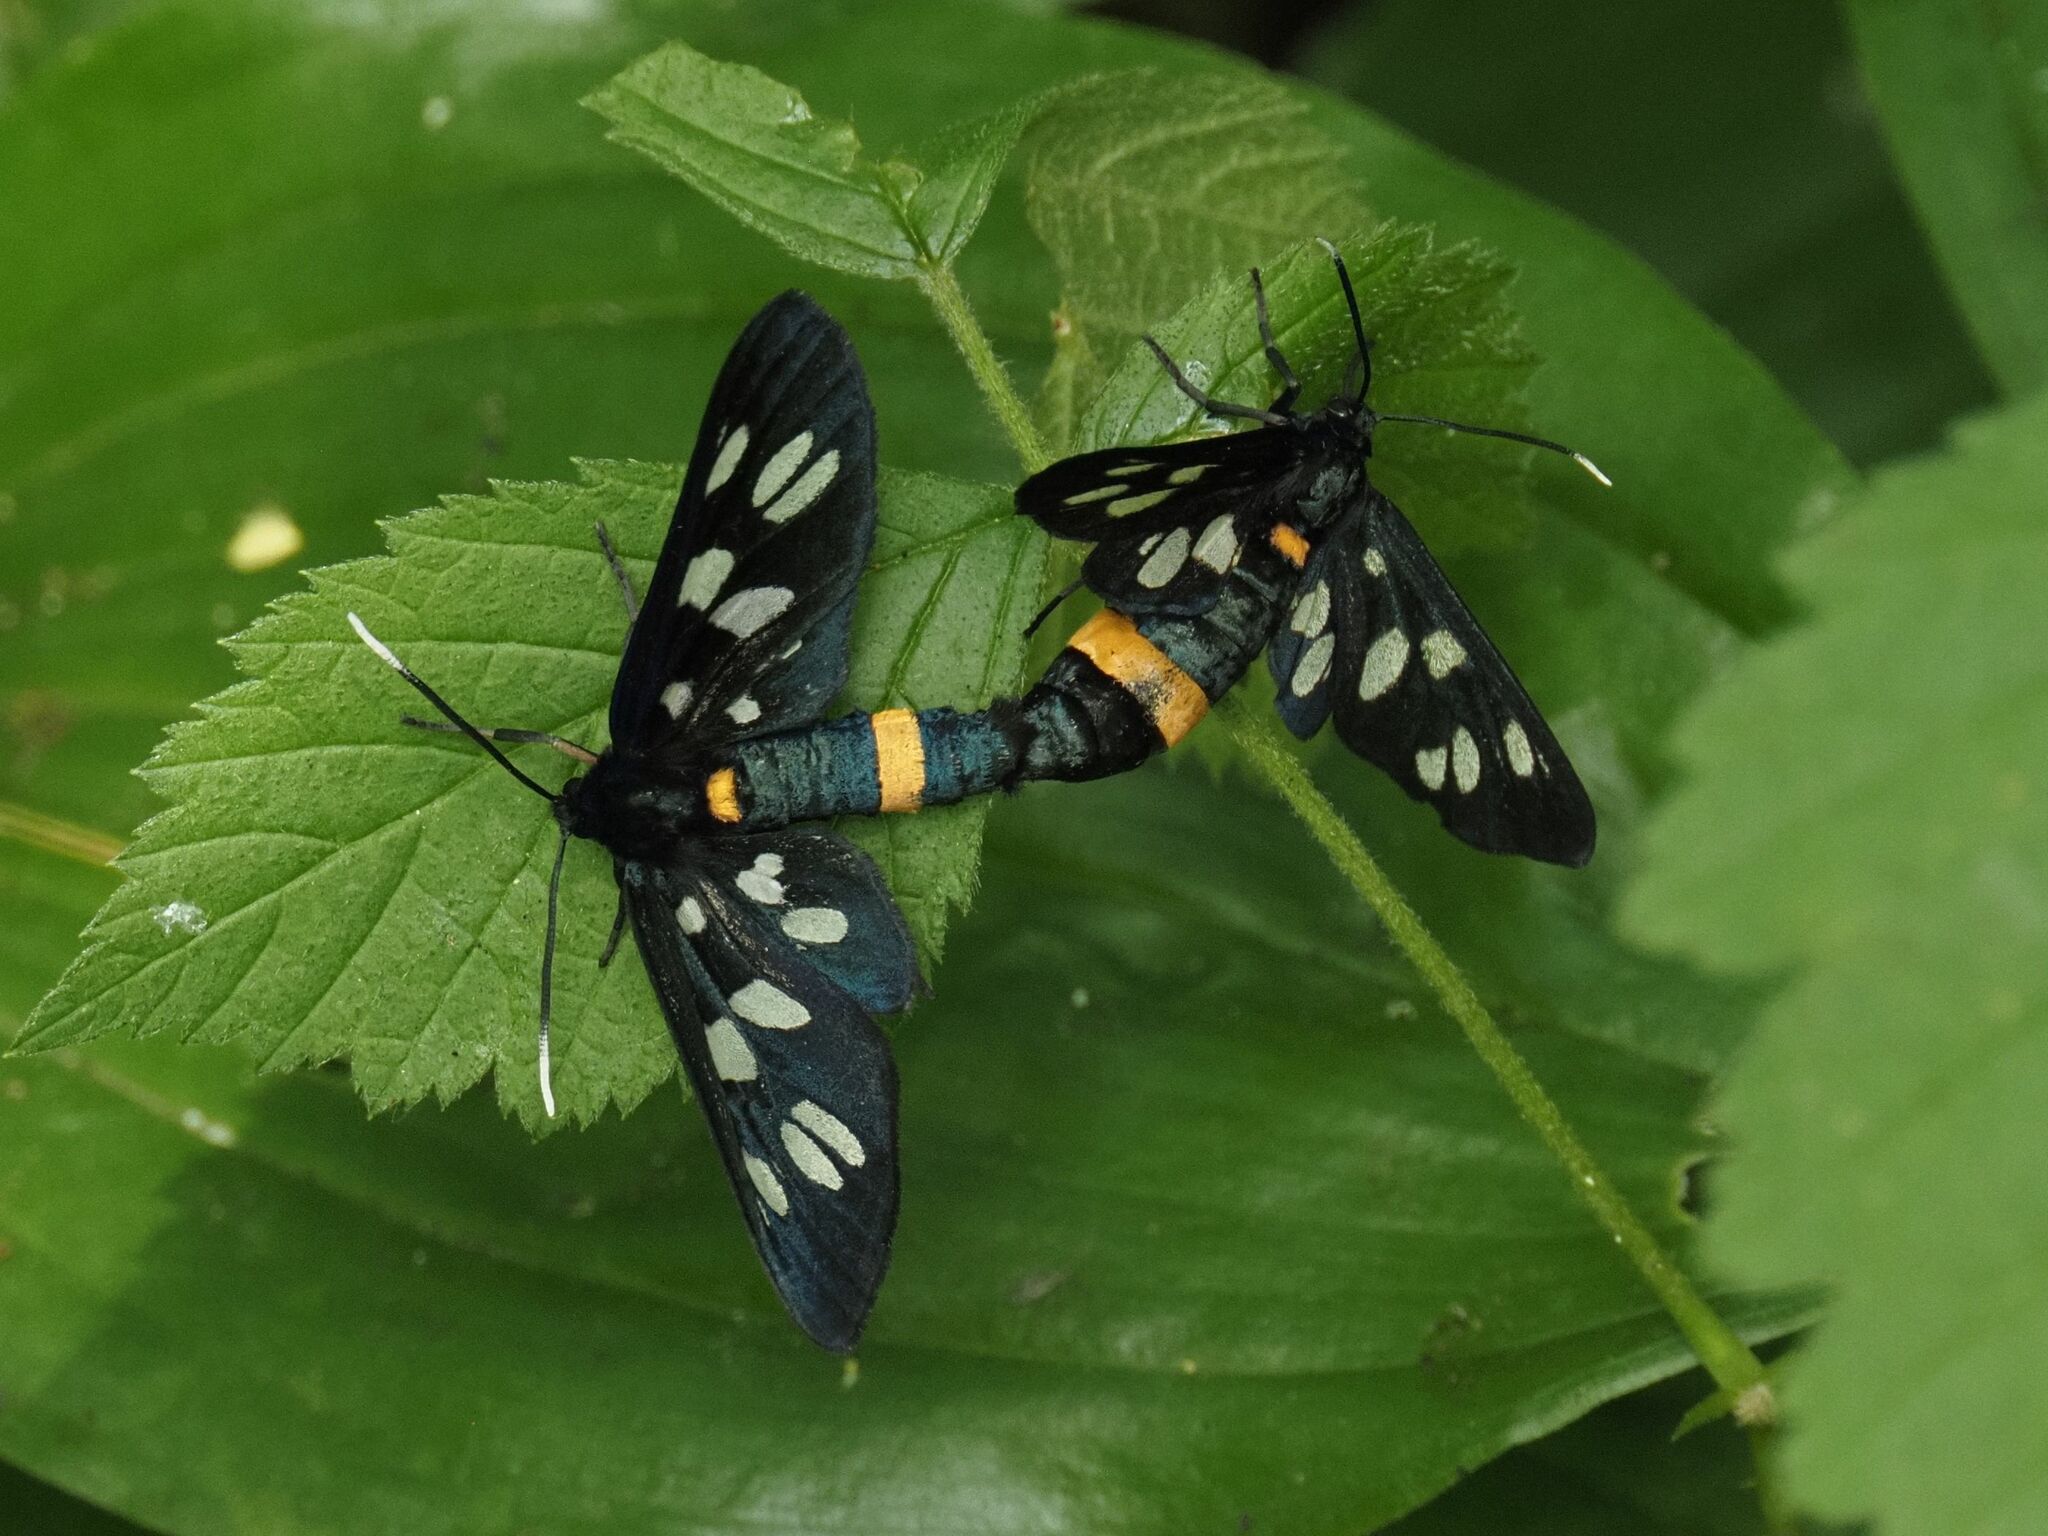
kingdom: Animalia
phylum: Arthropoda
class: Insecta
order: Lepidoptera
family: Erebidae
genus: Amata
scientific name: Amata phegea
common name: Nine-spotted
